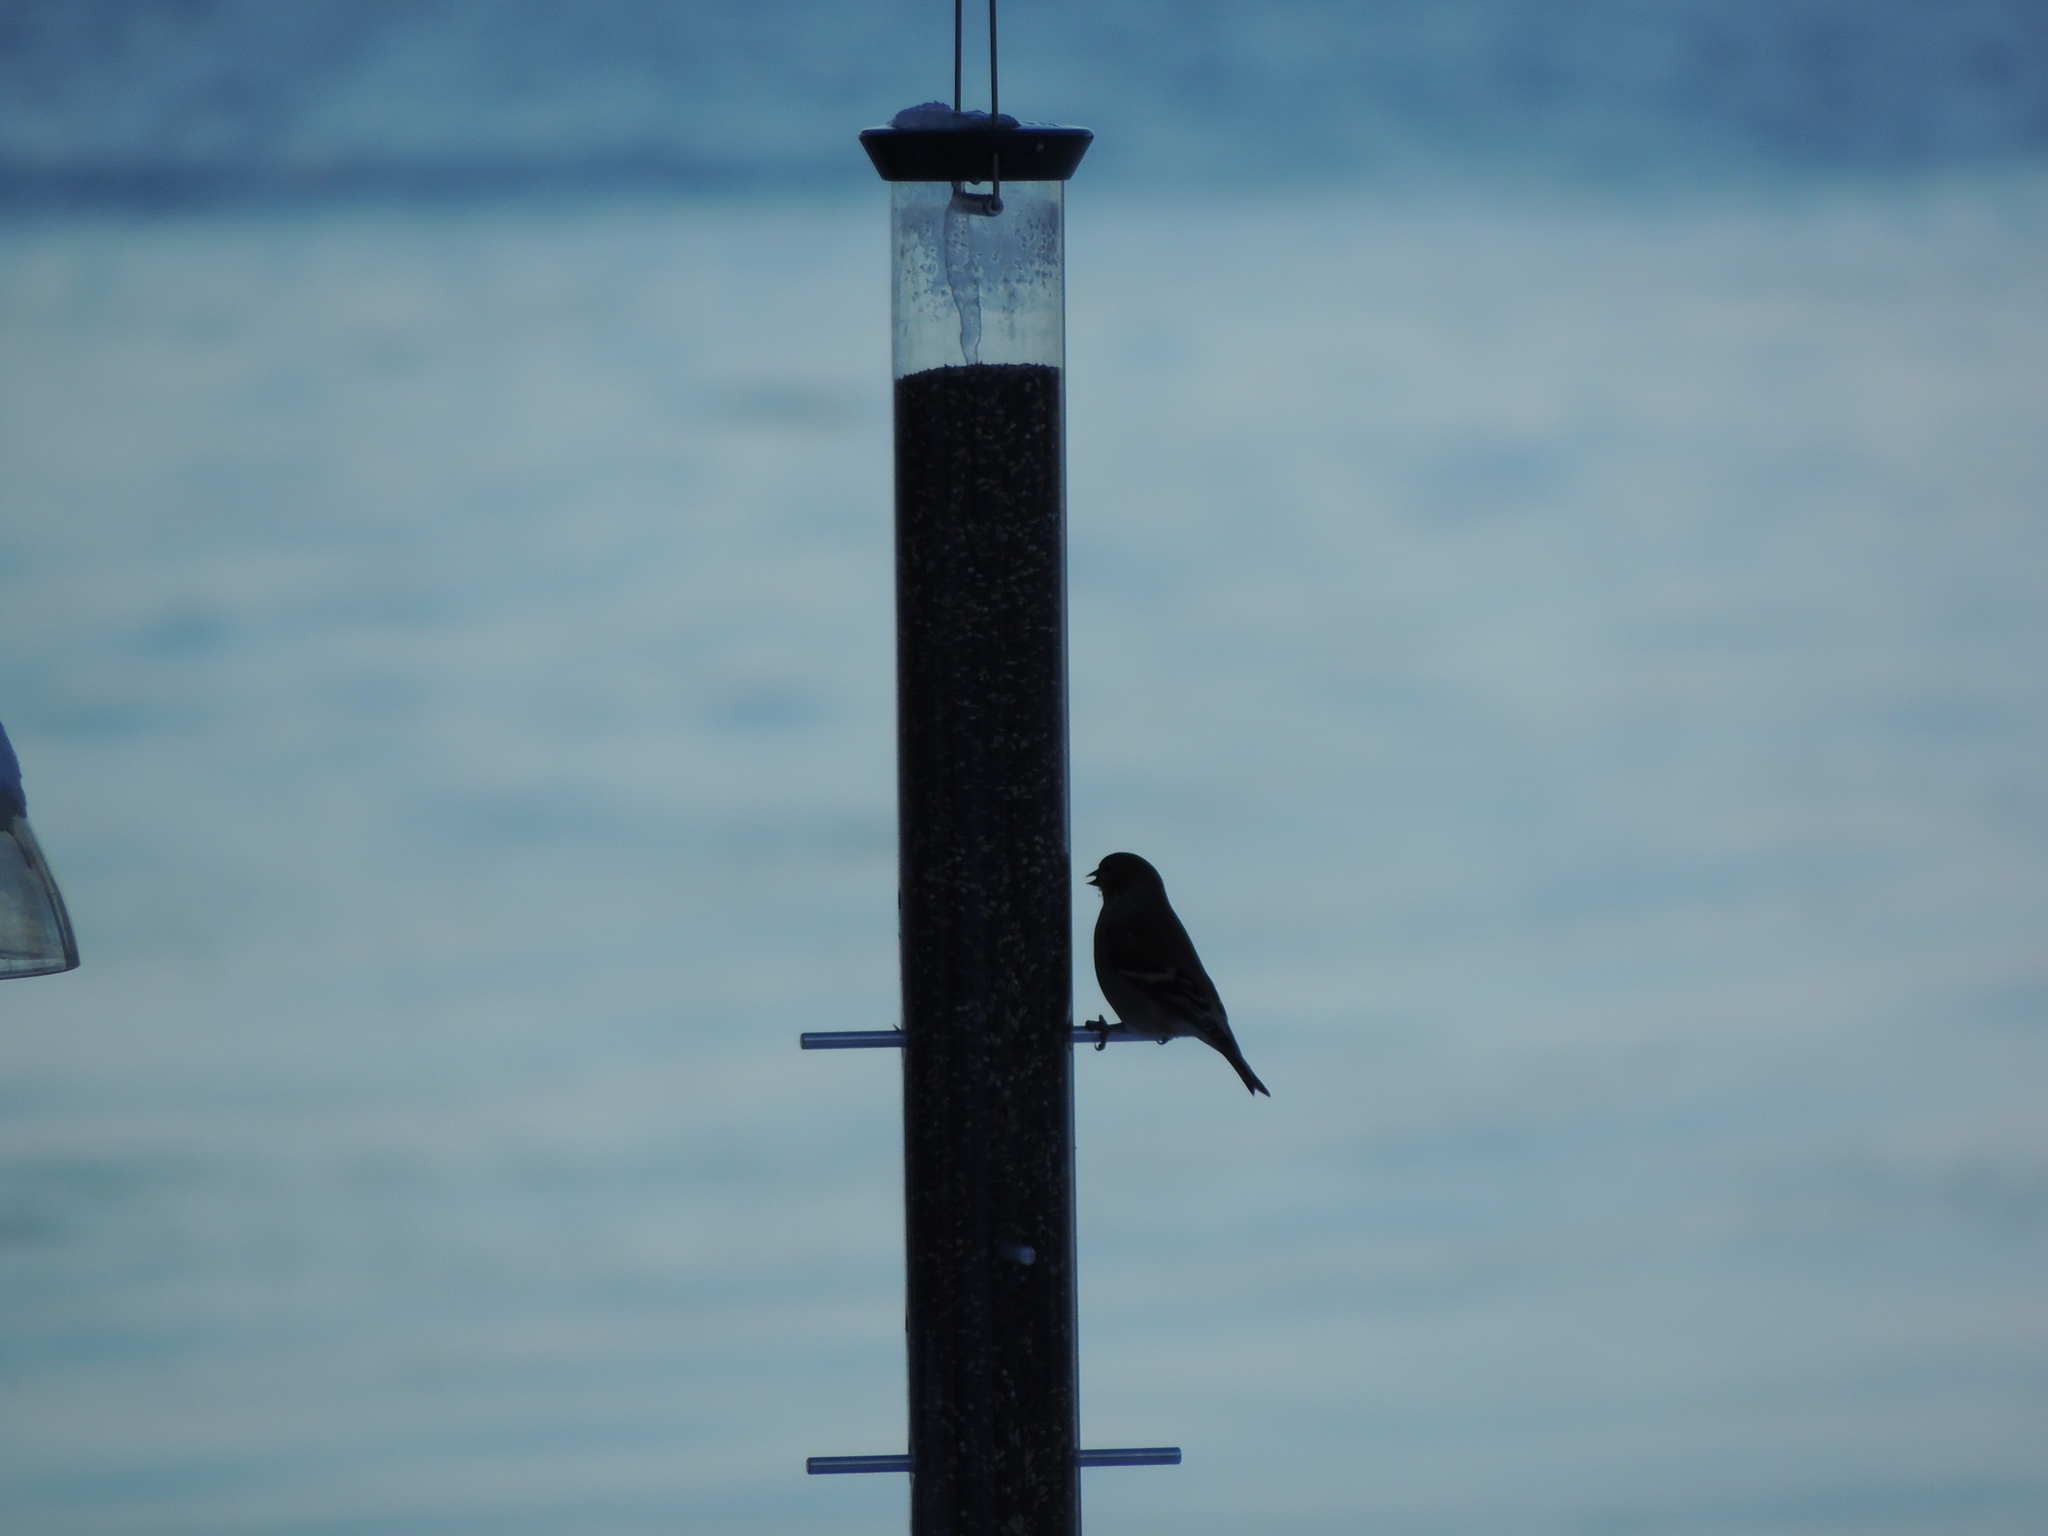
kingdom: Animalia
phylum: Chordata
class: Aves
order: Passeriformes
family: Fringillidae
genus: Spinus
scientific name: Spinus tristis
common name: American goldfinch
